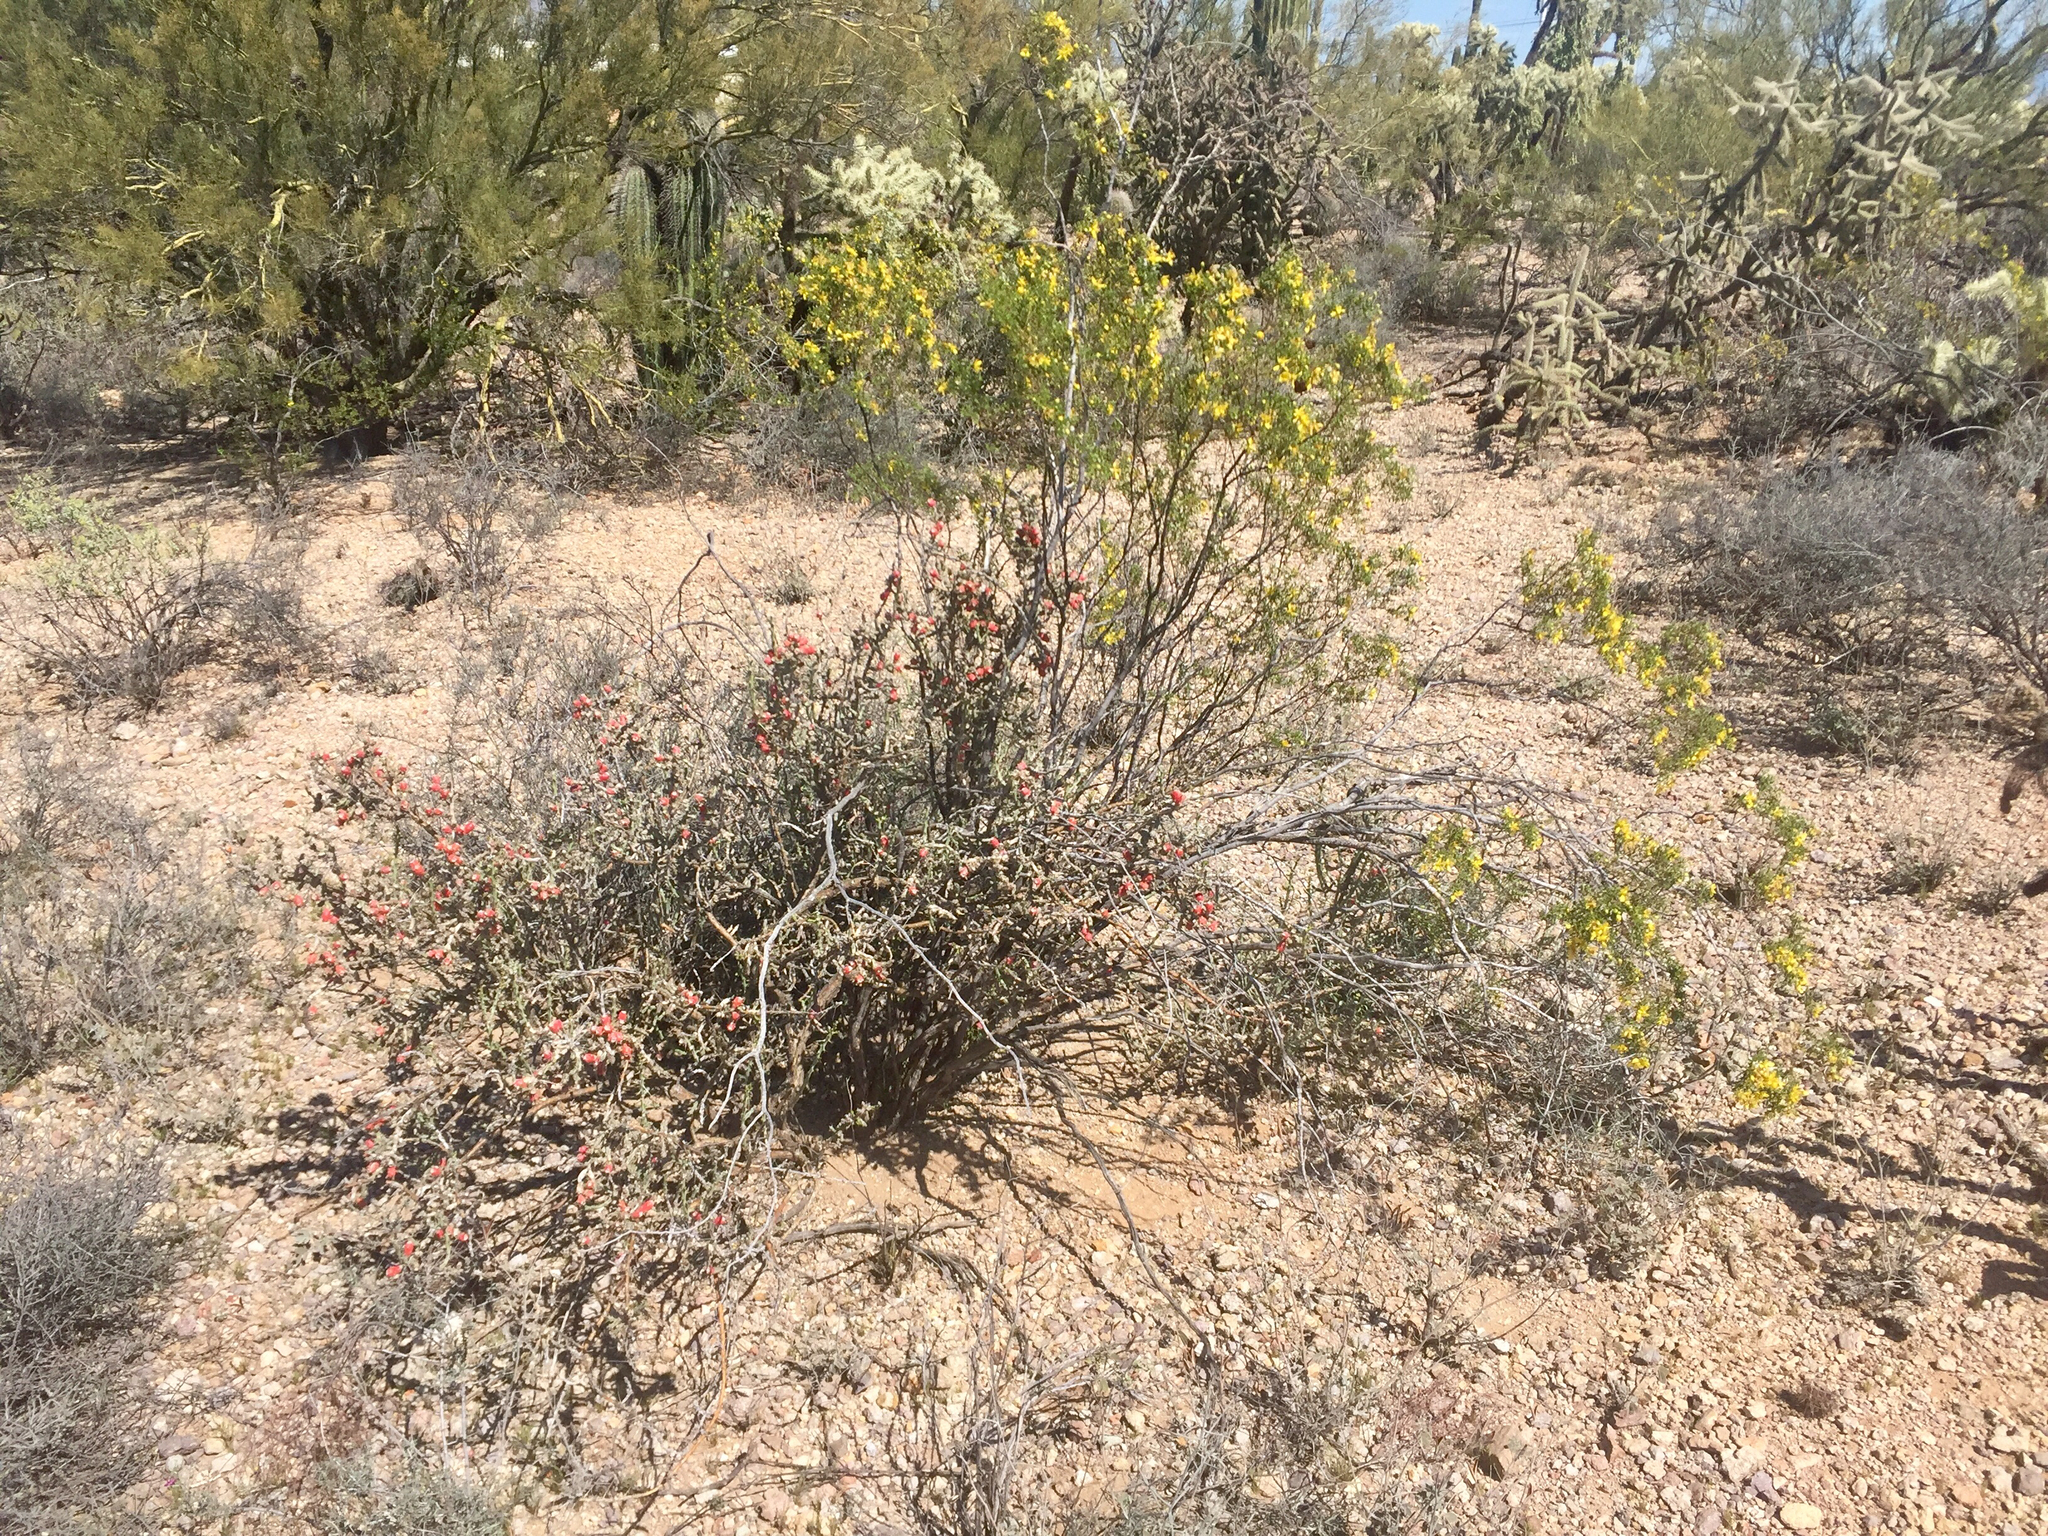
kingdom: Plantae
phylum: Tracheophyta
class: Magnoliopsida
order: Zygophyllales
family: Zygophyllaceae
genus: Larrea
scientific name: Larrea tridentata
